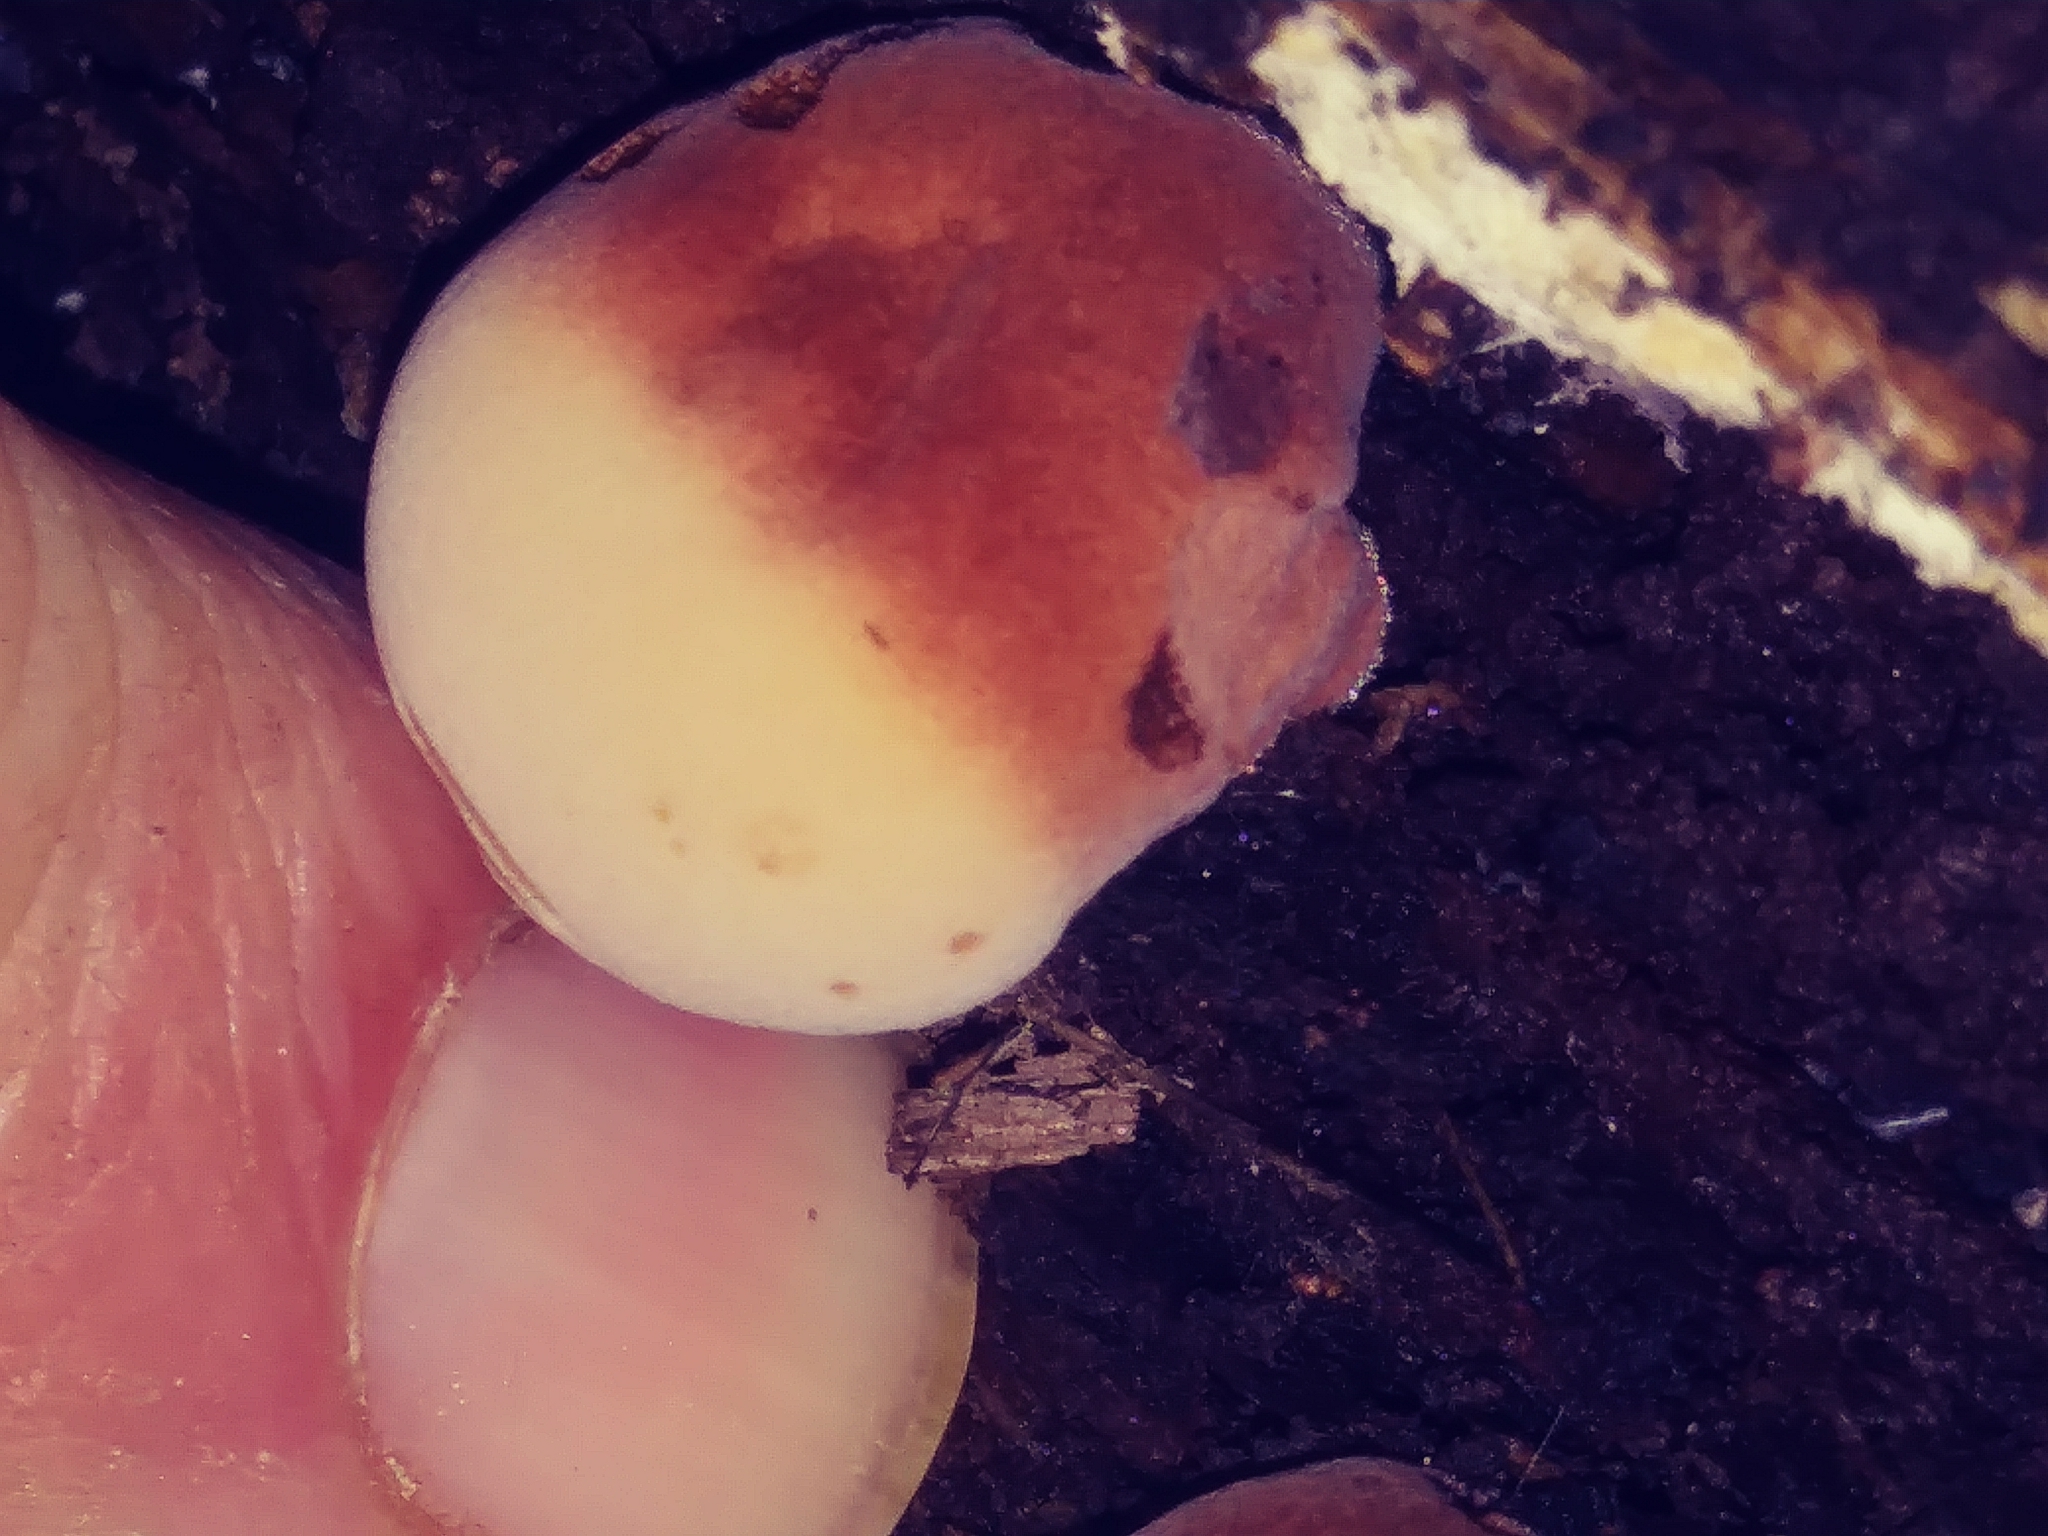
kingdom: Fungi
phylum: Basidiomycota
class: Agaricomycetes
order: Polyporales
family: Ischnodermataceae
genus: Ischnoderma
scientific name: Ischnoderma resinosum
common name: Resinous polypore
